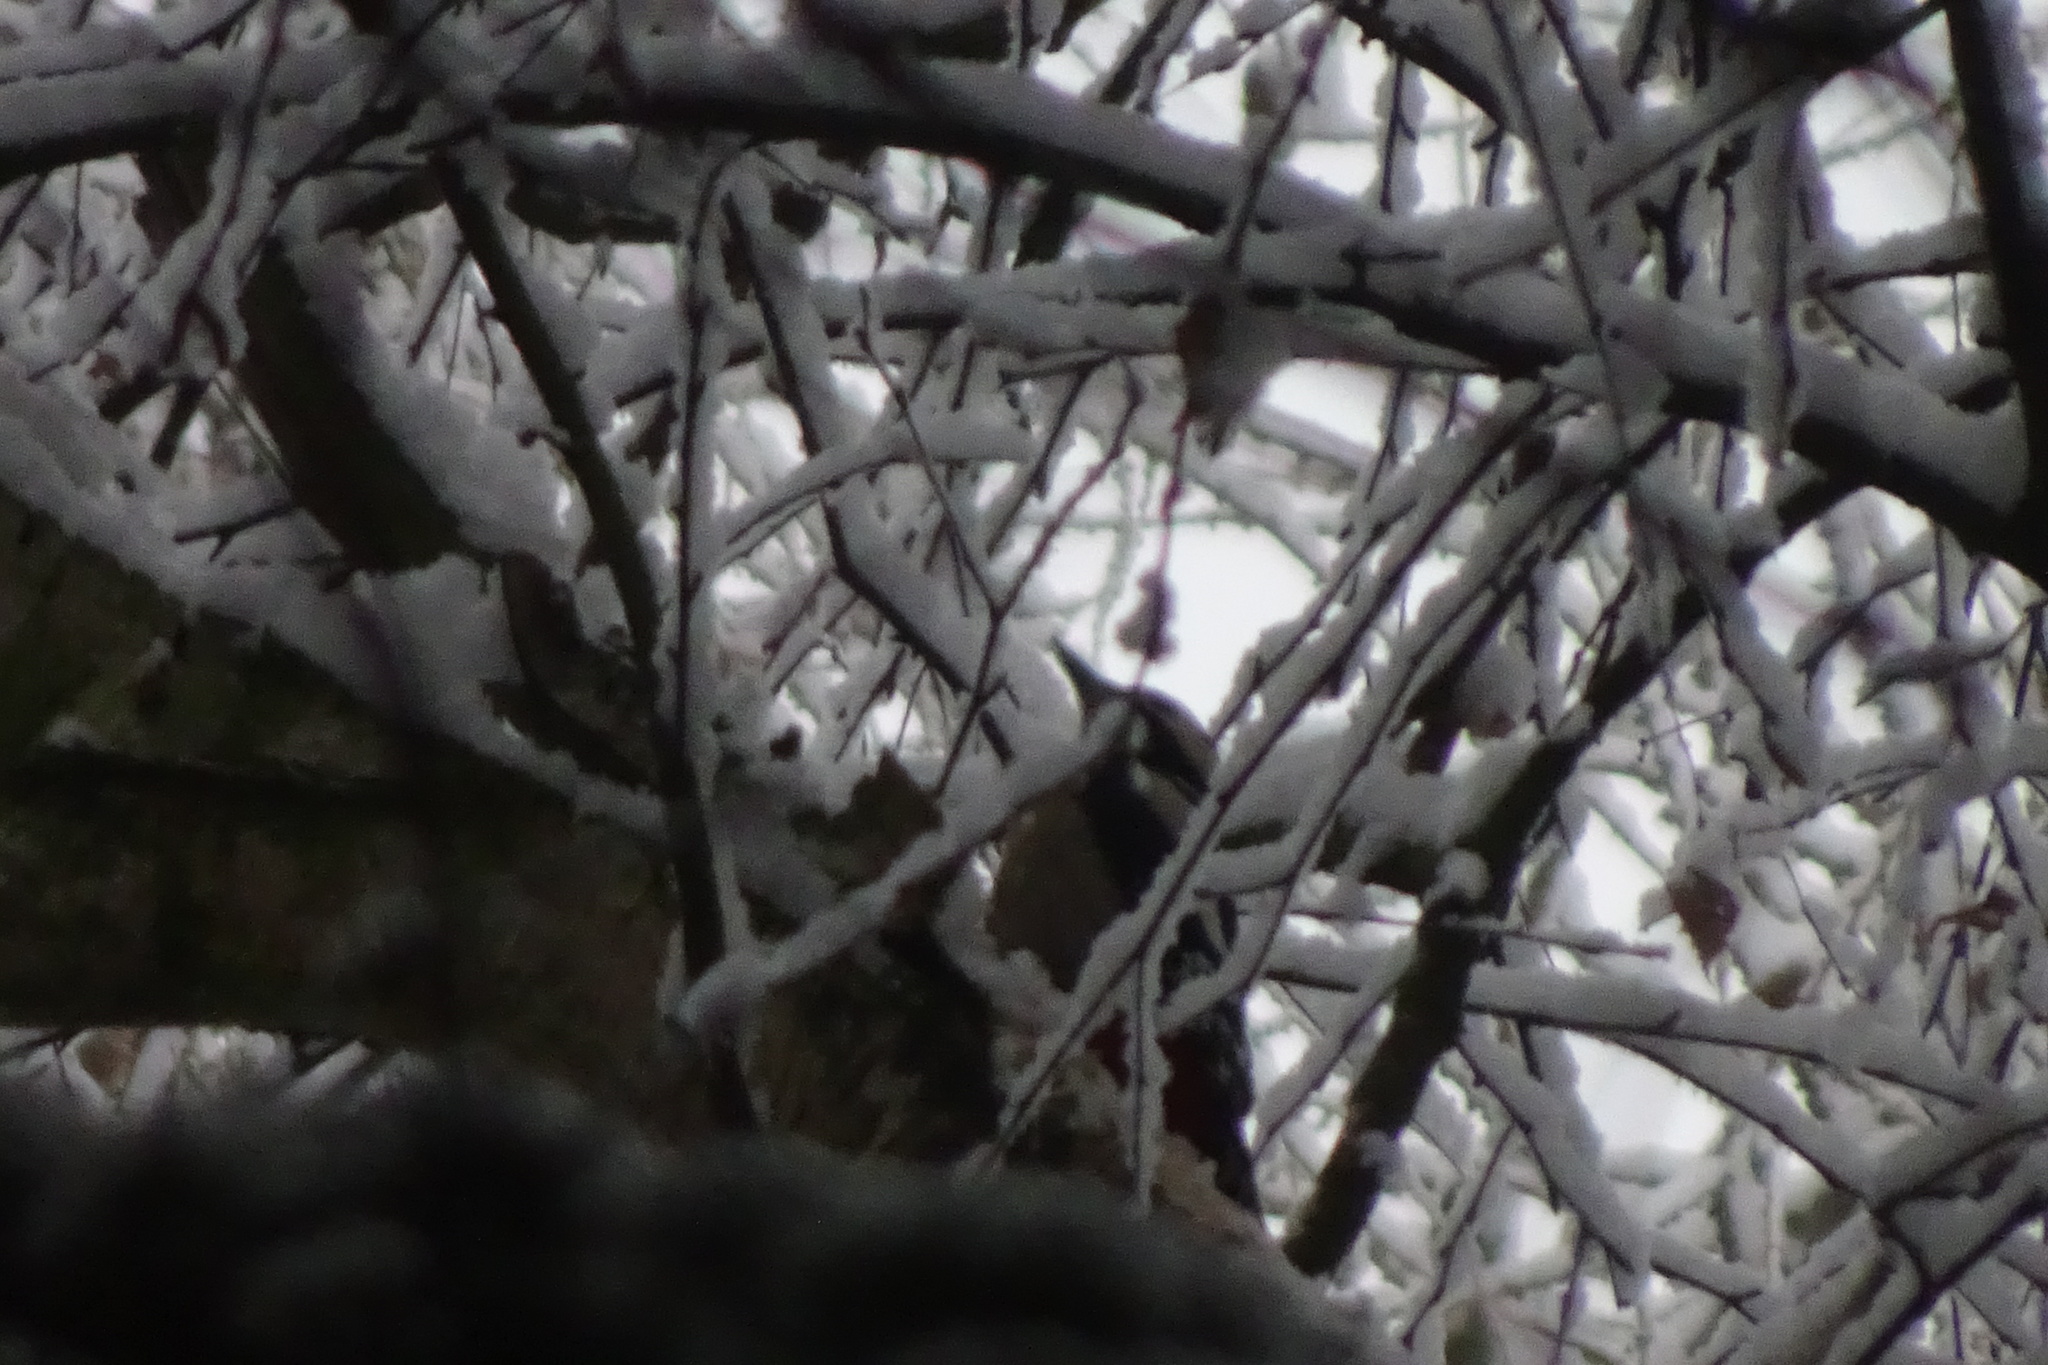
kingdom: Animalia
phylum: Chordata
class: Aves
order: Piciformes
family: Picidae
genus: Dendrocopos
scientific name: Dendrocopos major
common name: Great spotted woodpecker
